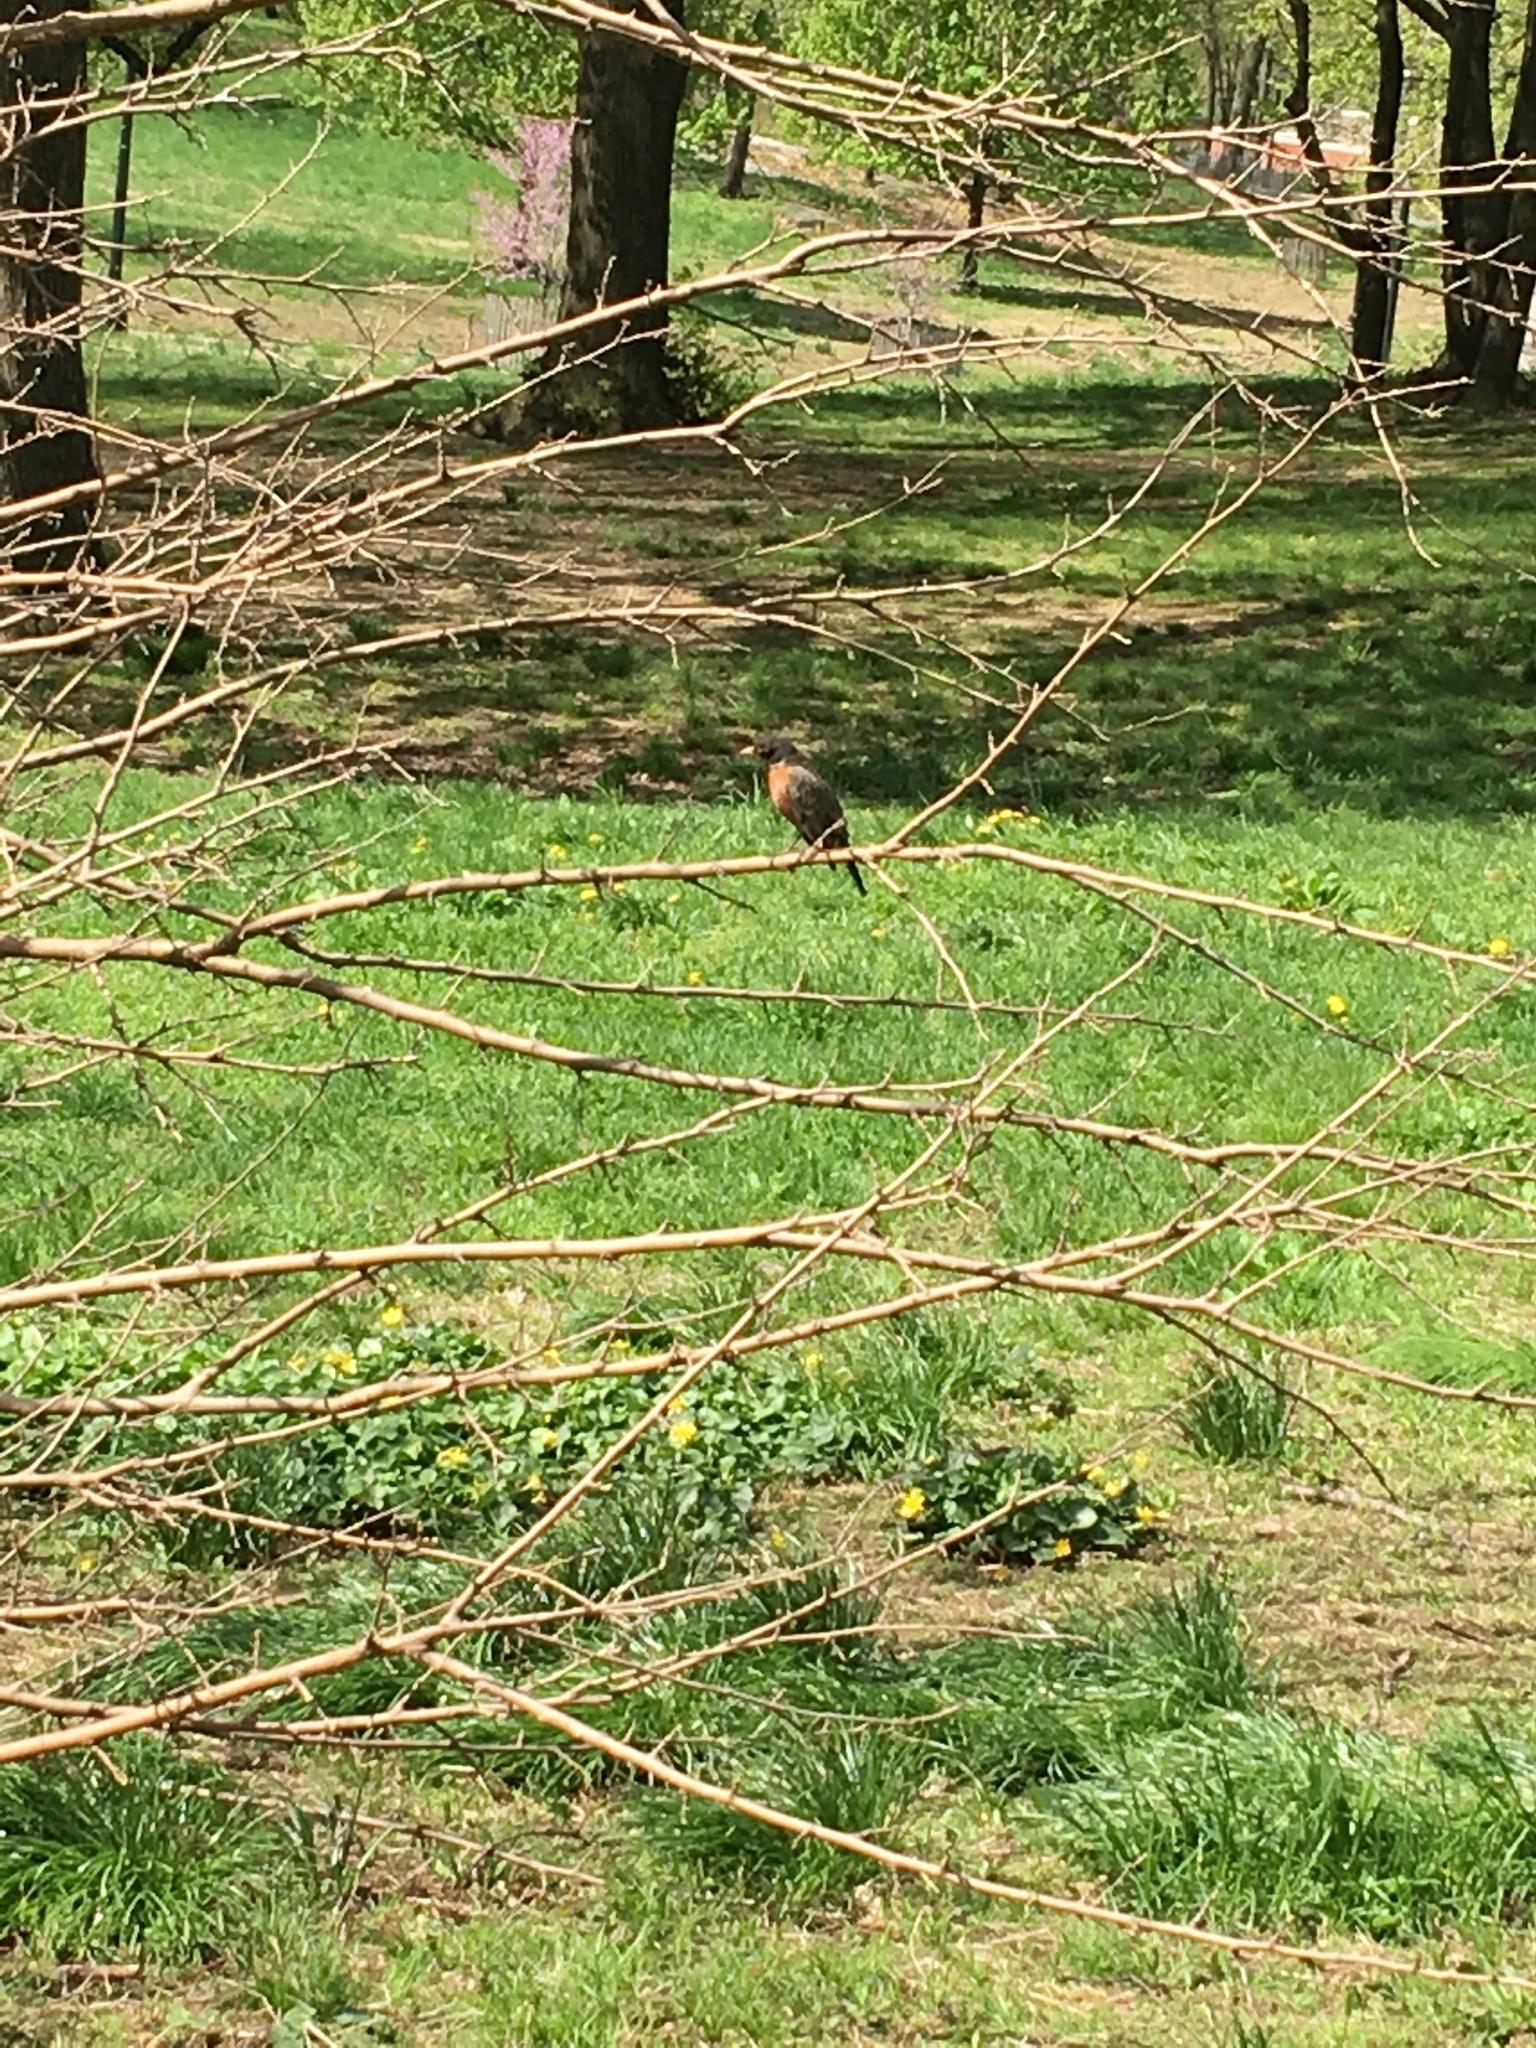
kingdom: Animalia
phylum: Chordata
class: Aves
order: Passeriformes
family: Turdidae
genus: Turdus
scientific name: Turdus migratorius
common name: American robin
